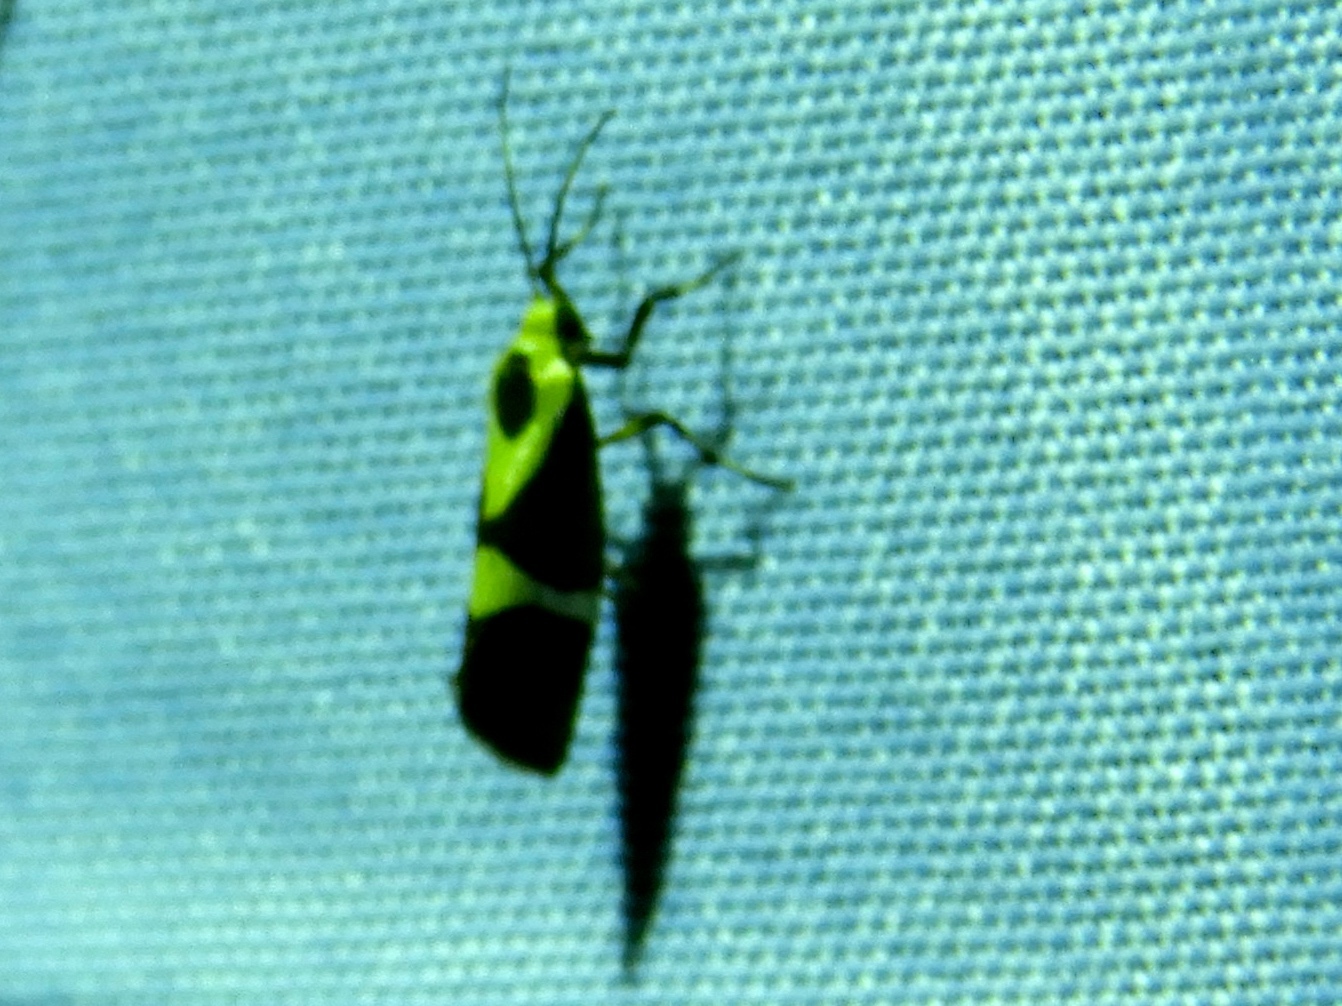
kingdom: Animalia
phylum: Arthropoda
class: Insecta
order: Lepidoptera
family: Erebidae
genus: Cisthene
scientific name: Cisthene
